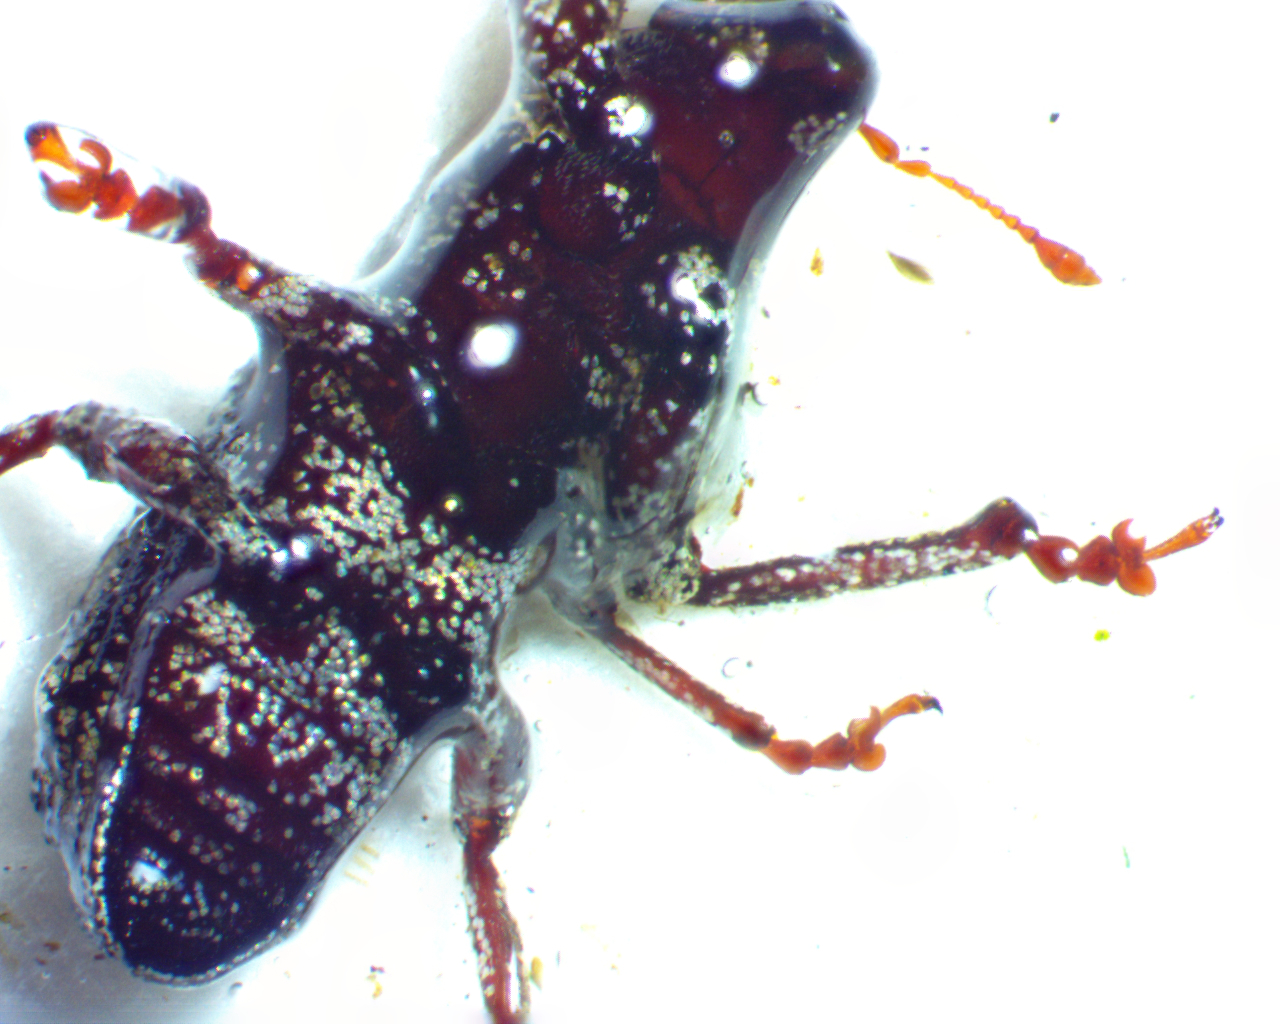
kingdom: Animalia
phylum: Arthropoda
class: Insecta
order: Coleoptera
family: Curculionidae
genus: Pandeleteius
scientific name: Pandeleteius hilaris
